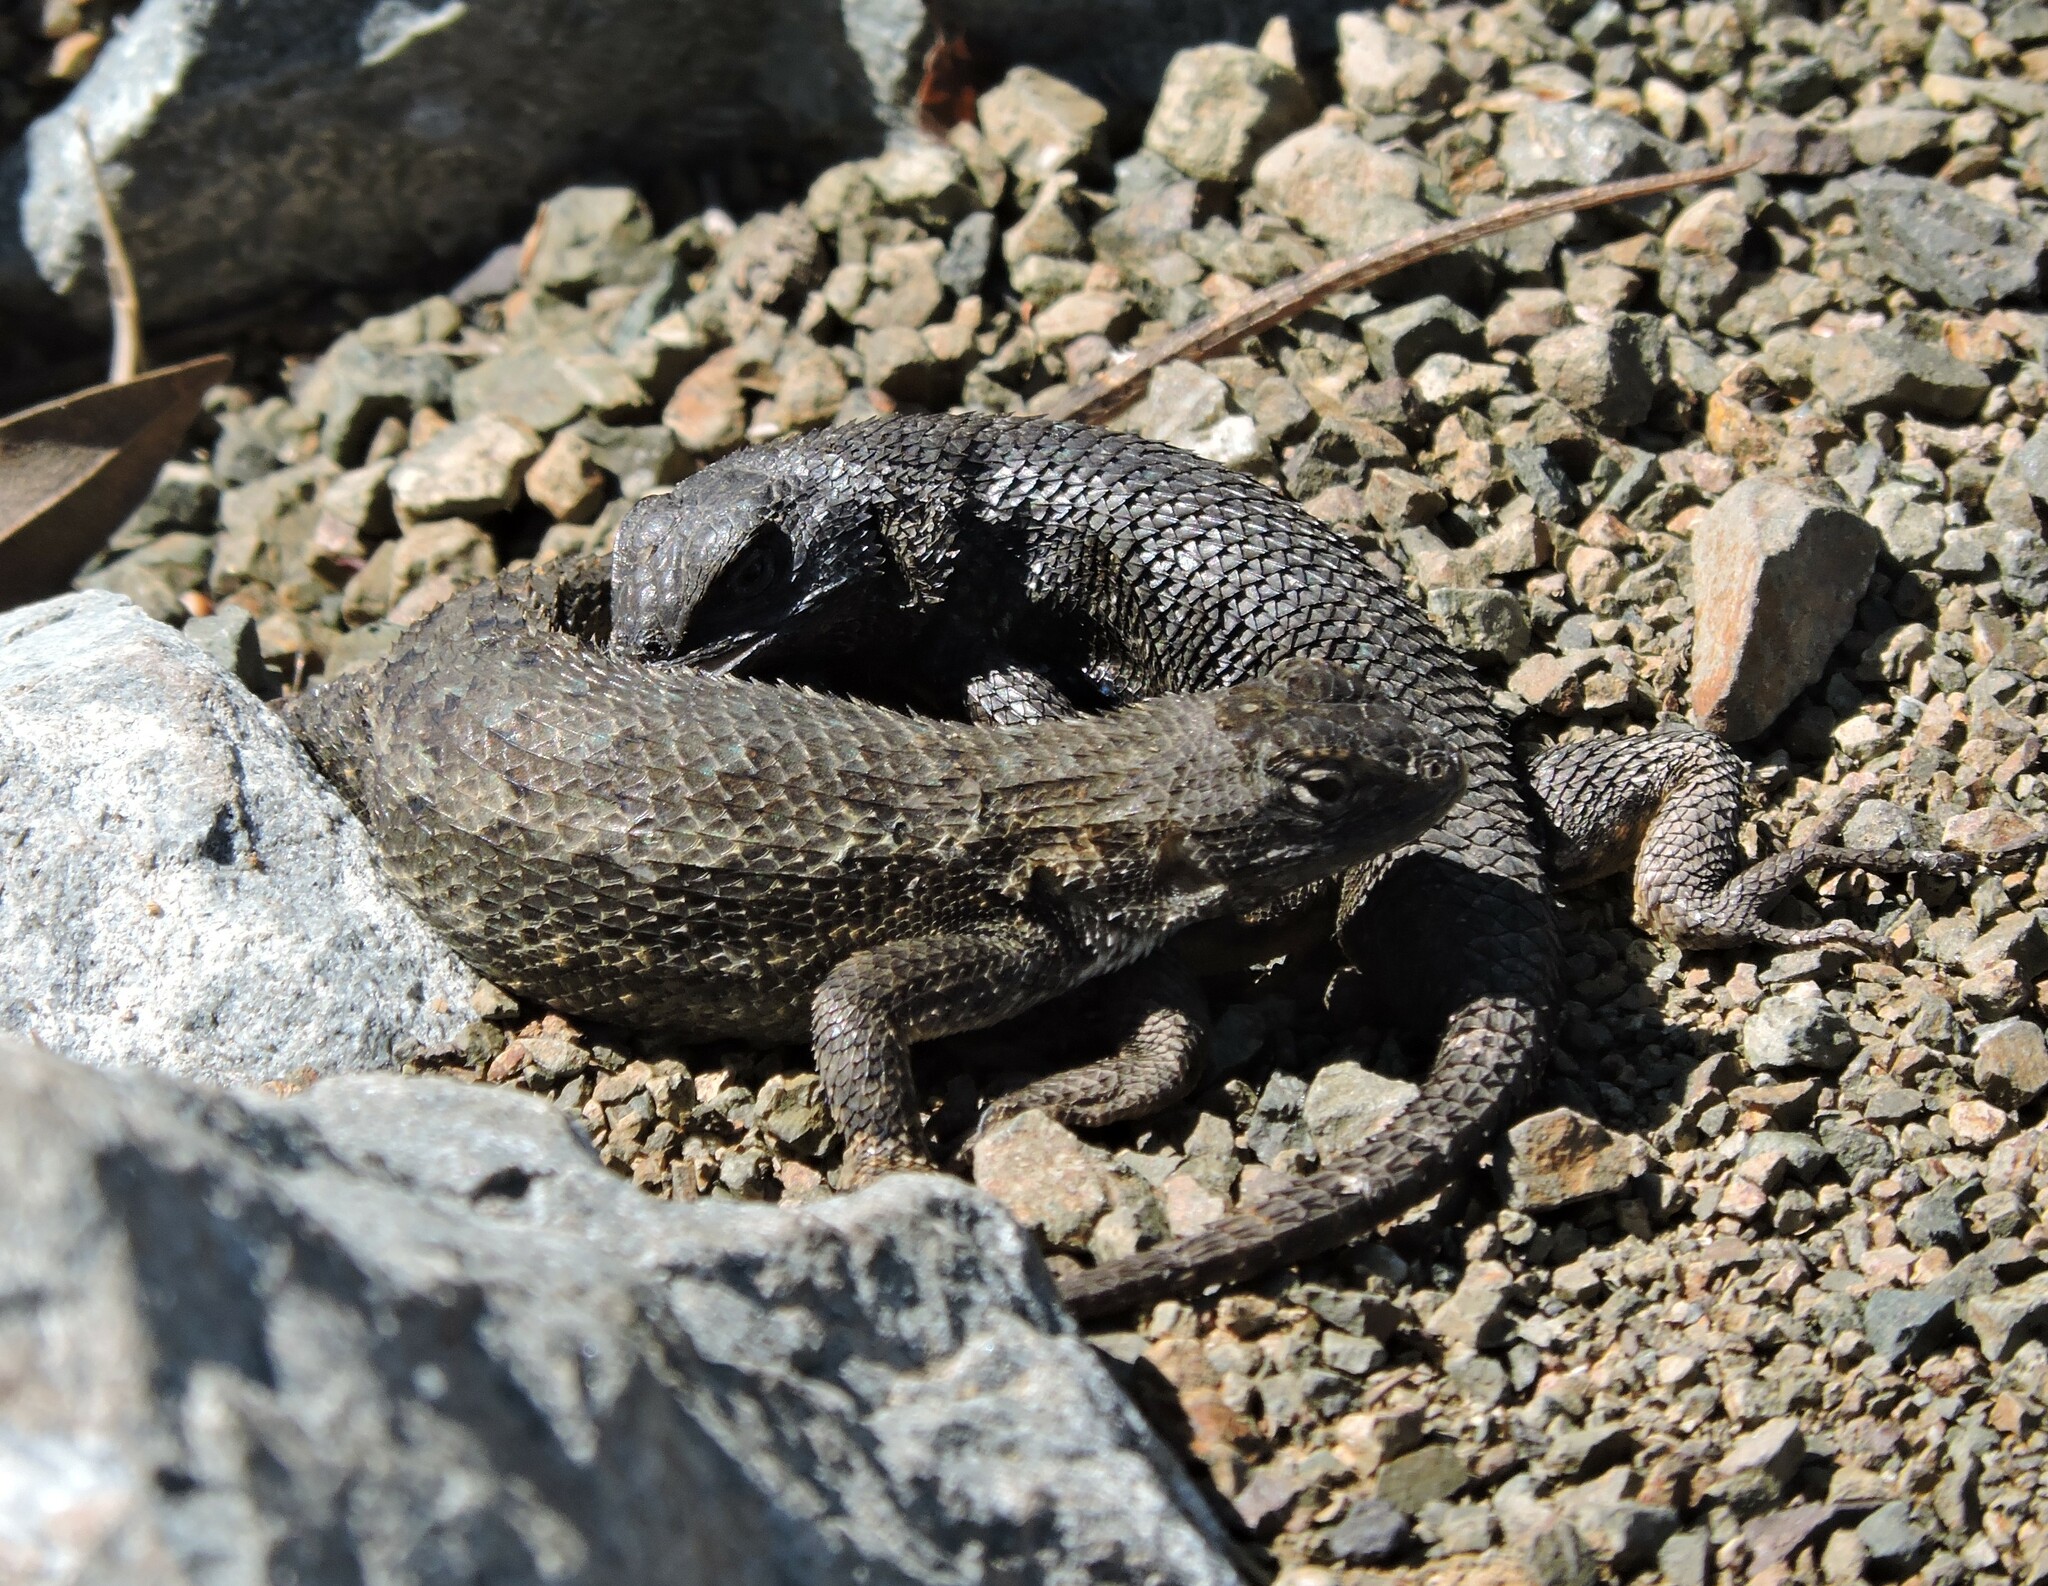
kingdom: Animalia
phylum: Chordata
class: Squamata
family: Phrynosomatidae
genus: Sceloporus
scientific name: Sceloporus occidentalis
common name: Western fence lizard
